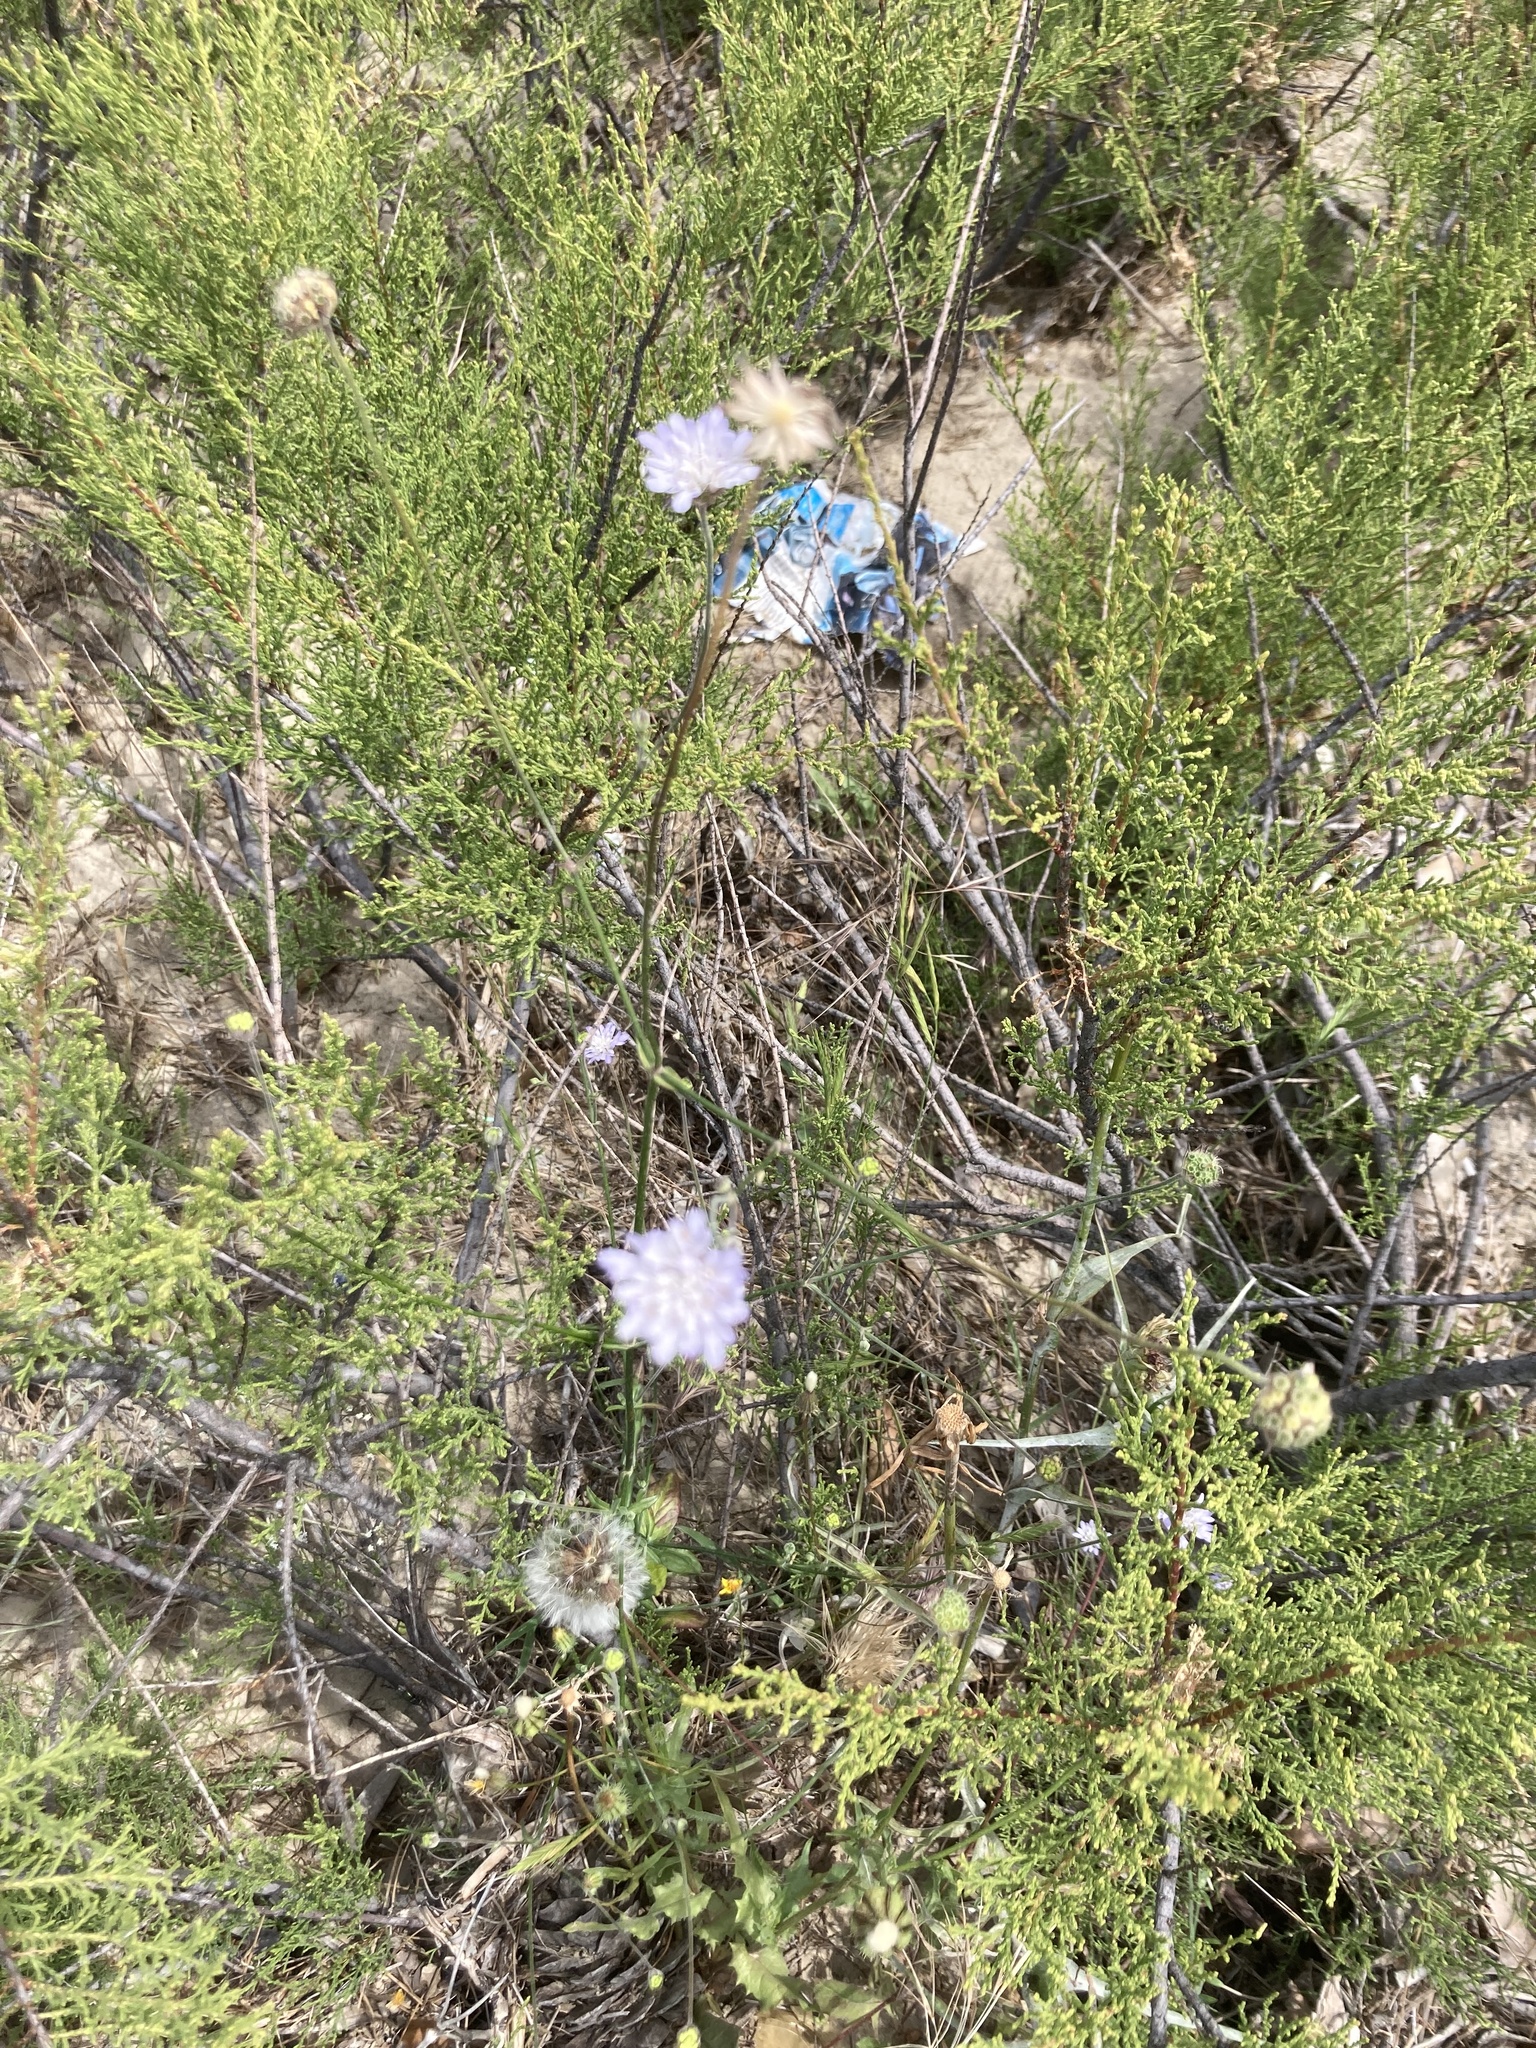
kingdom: Plantae
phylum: Tracheophyta
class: Magnoliopsida
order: Dipsacales
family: Caprifoliaceae
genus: Knautia
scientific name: Knautia integrifolia
